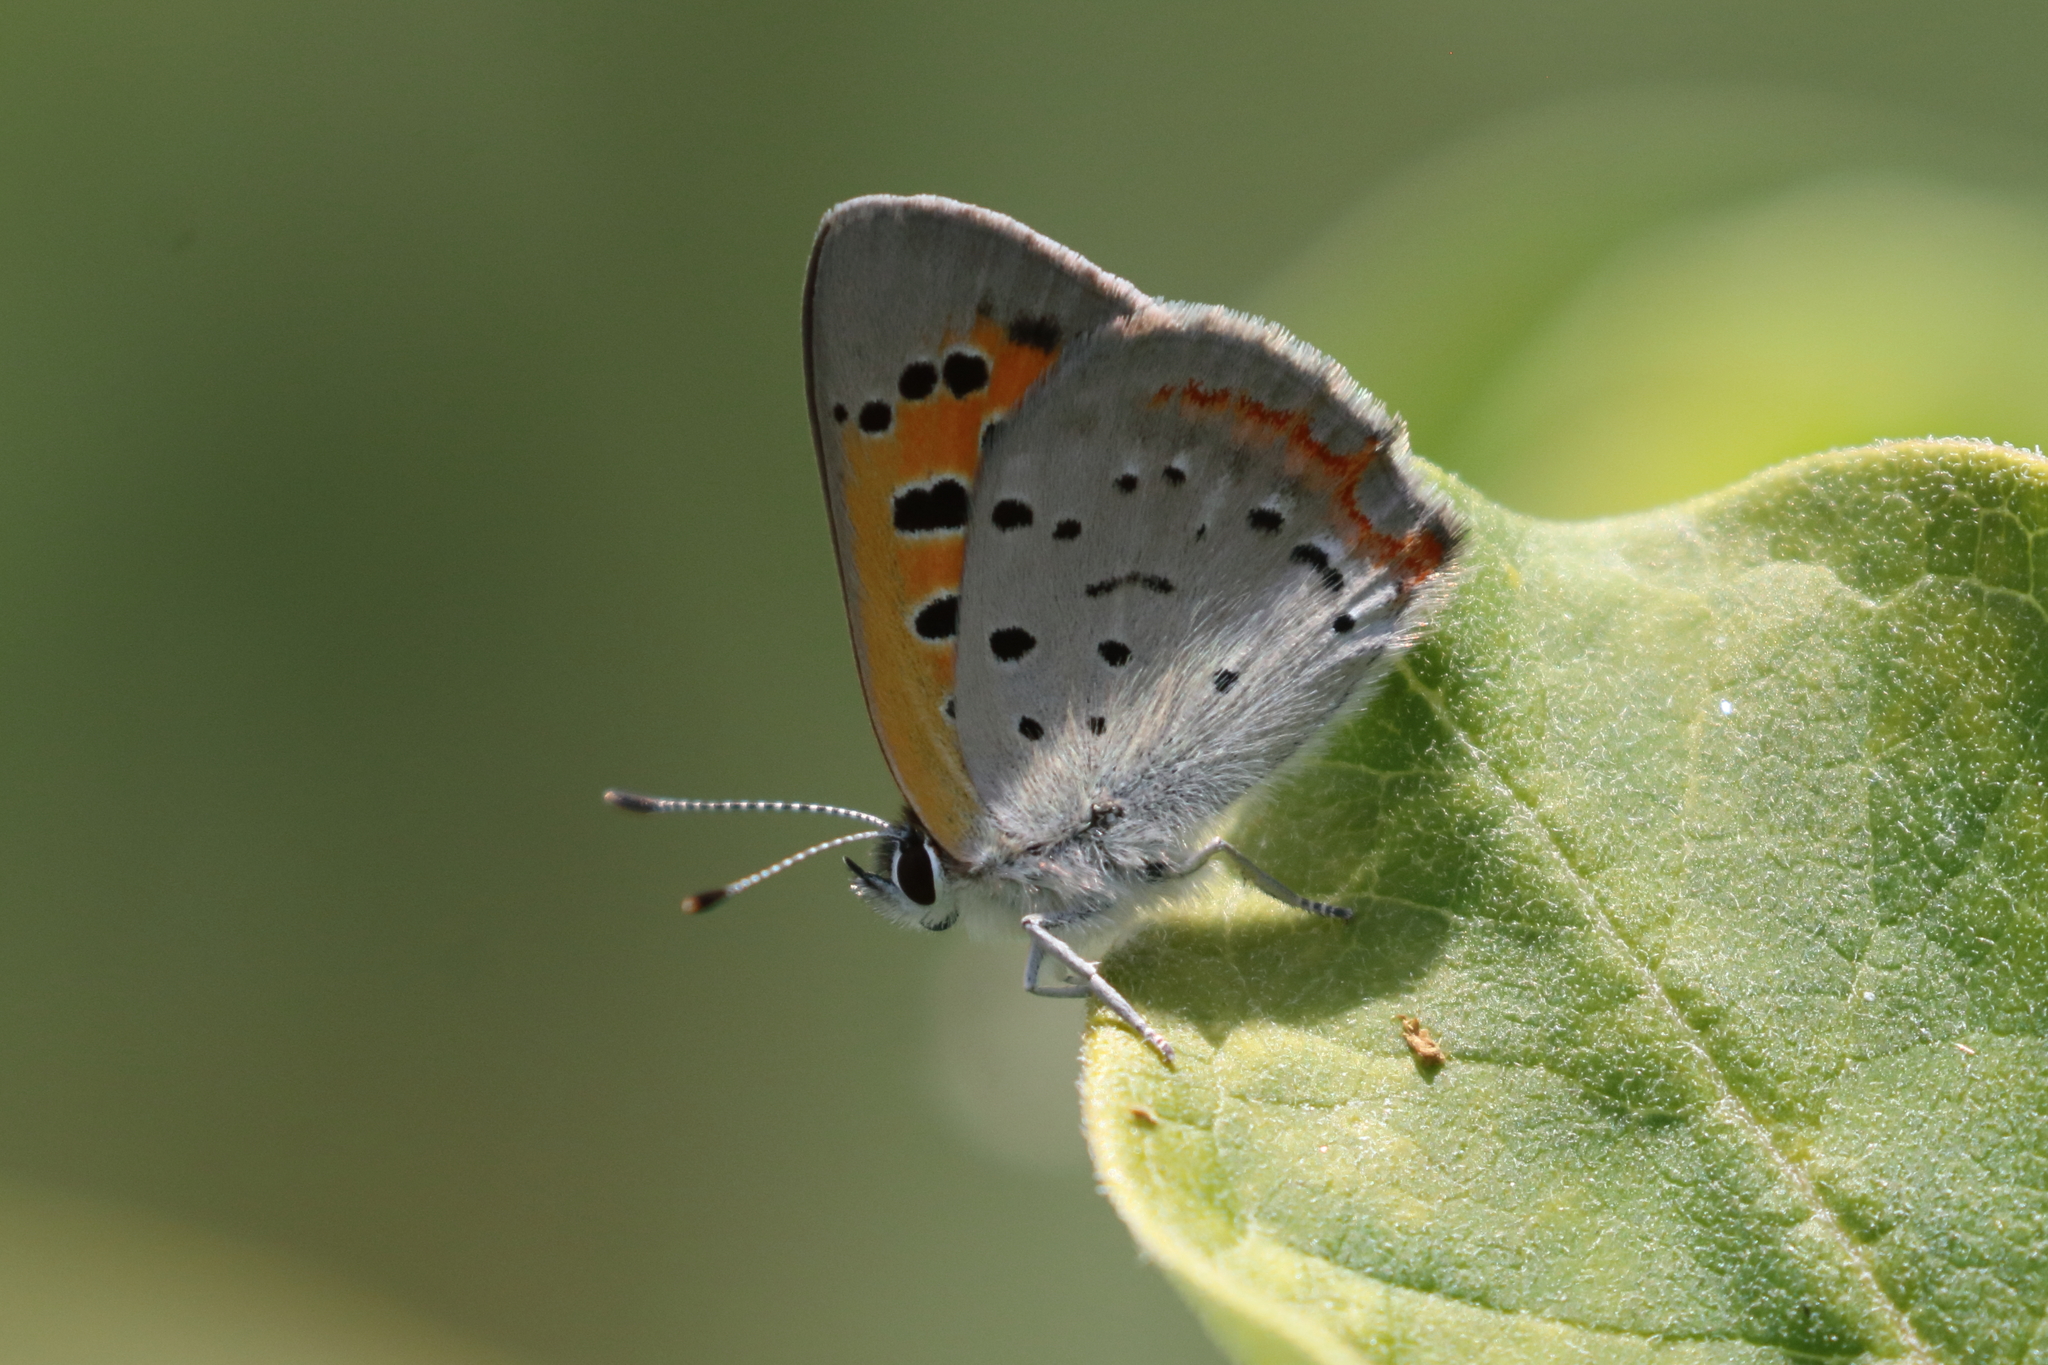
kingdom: Animalia
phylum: Arthropoda
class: Insecta
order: Lepidoptera
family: Lycaenidae
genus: Lycaena
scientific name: Lycaena hypophlaeas
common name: American copper
